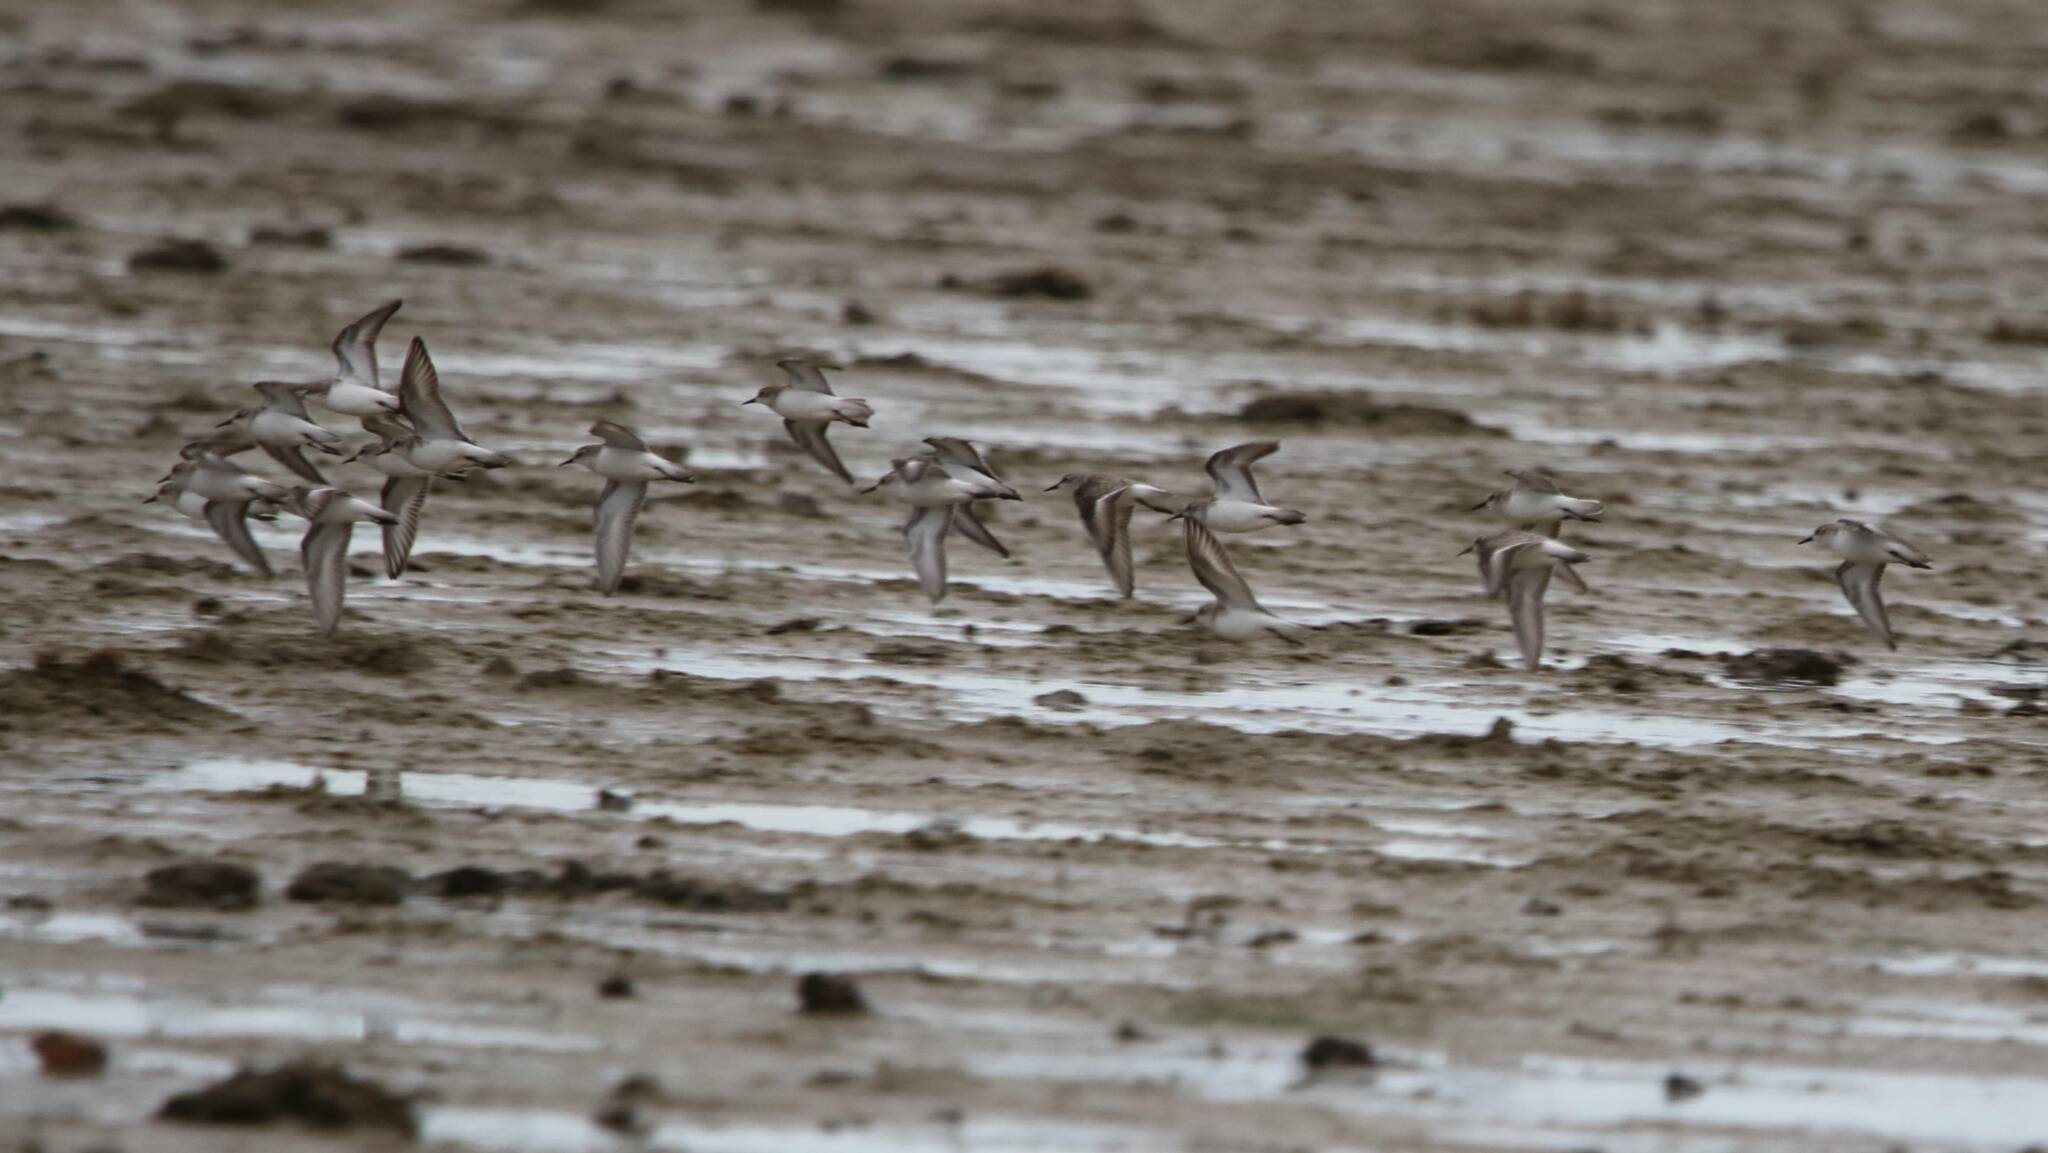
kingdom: Animalia
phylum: Chordata
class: Aves
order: Charadriiformes
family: Scolopacidae
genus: Calidris
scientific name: Calidris minuta
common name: Little stint
